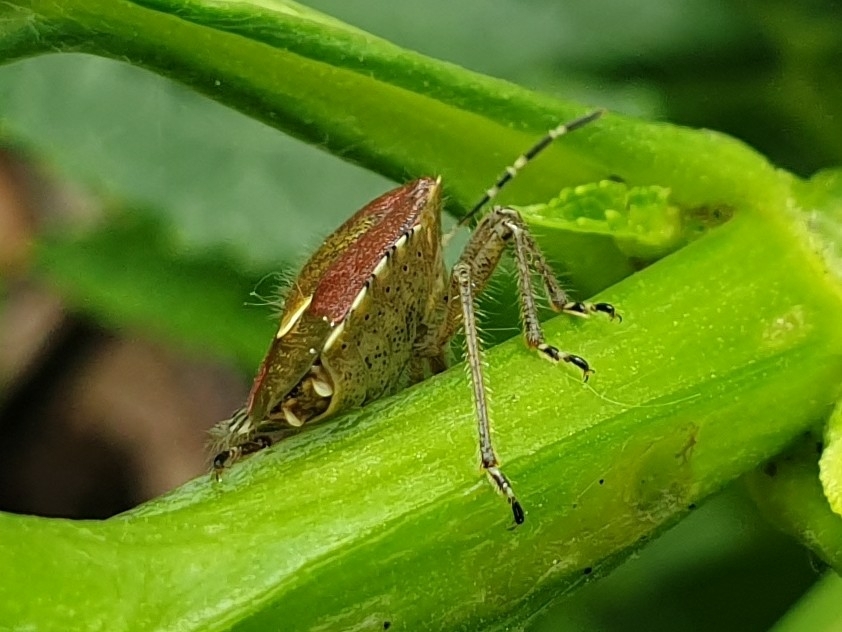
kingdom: Animalia
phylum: Arthropoda
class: Insecta
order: Hemiptera
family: Pentatomidae
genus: Dolycoris
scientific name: Dolycoris baccarum
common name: Sloe bug
